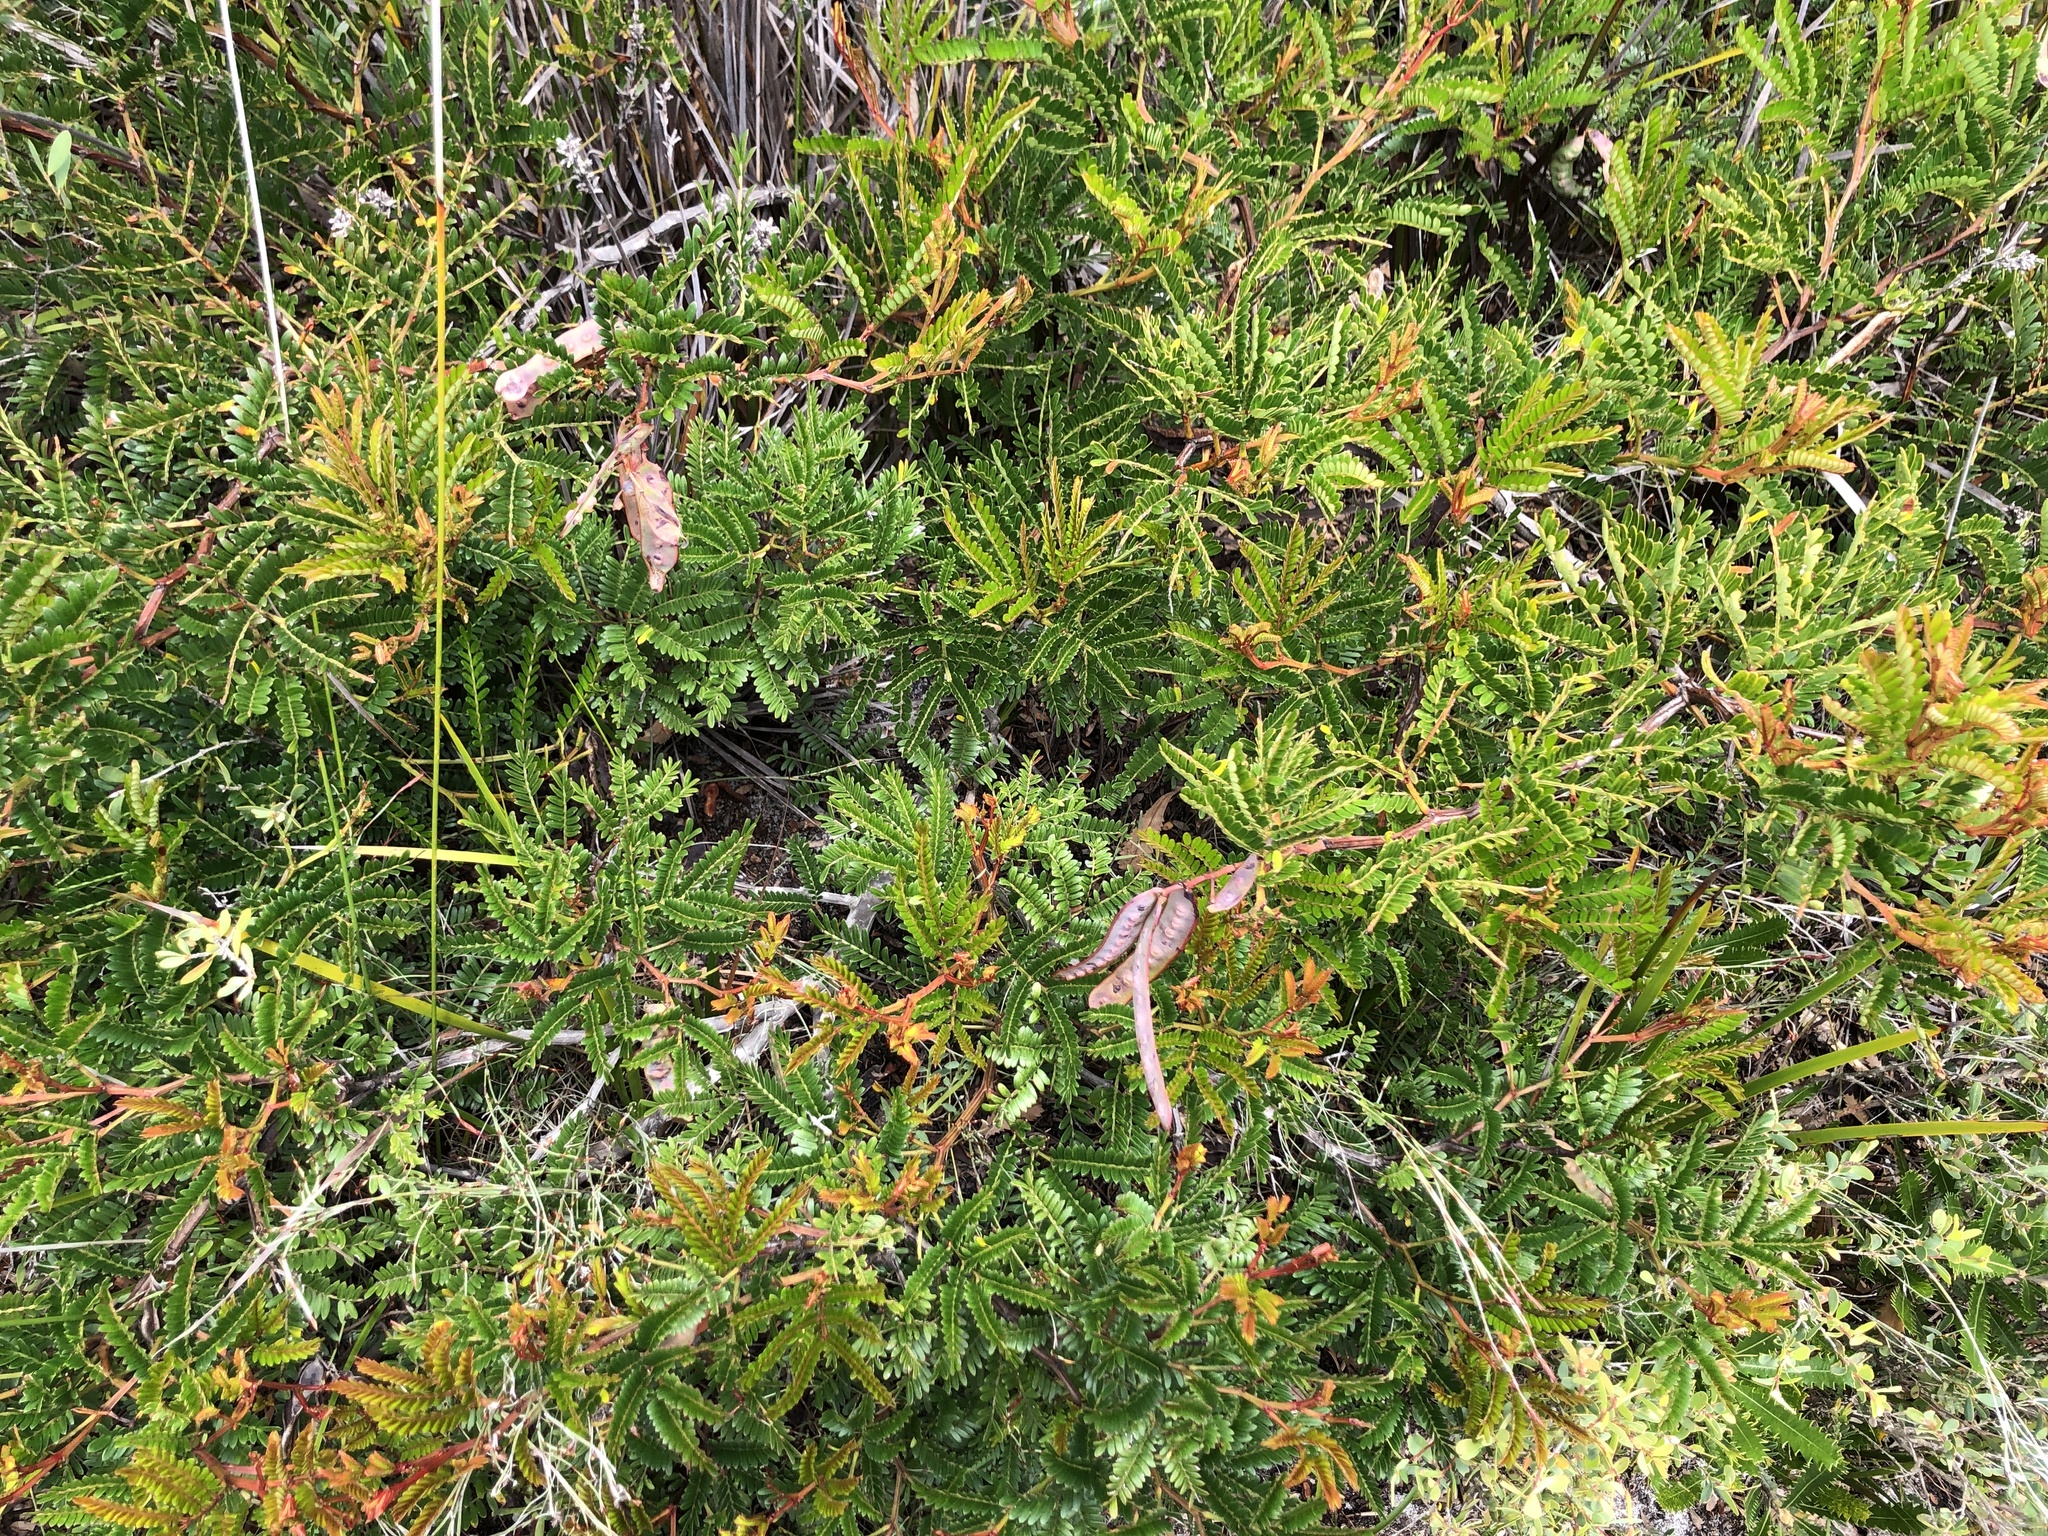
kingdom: Plantae
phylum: Tracheophyta
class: Magnoliopsida
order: Fabales
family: Fabaceae
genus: Acacia
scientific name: Acacia terminalis
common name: Cedar wattle
